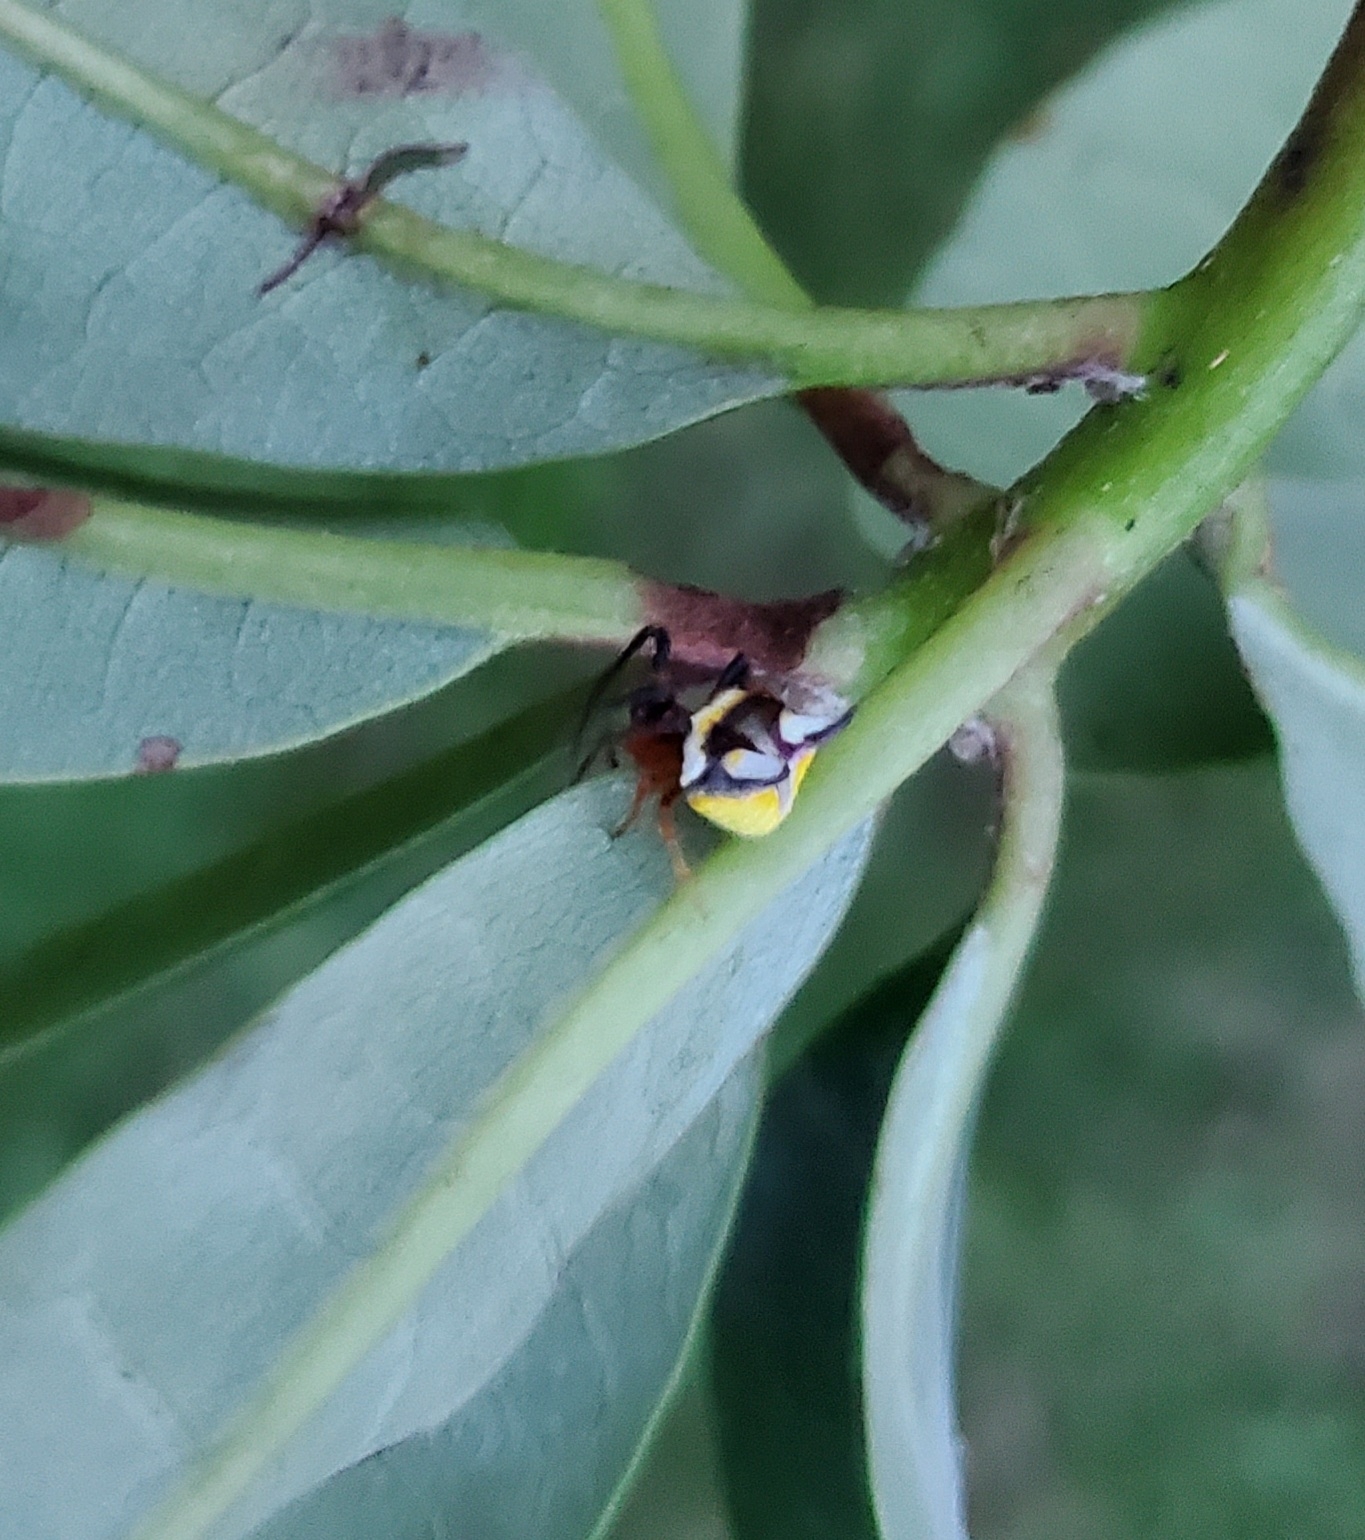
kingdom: Animalia
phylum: Arthropoda
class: Arachnida
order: Araneae
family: Araneidae
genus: Poecilopachys
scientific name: Poecilopachys australasia
